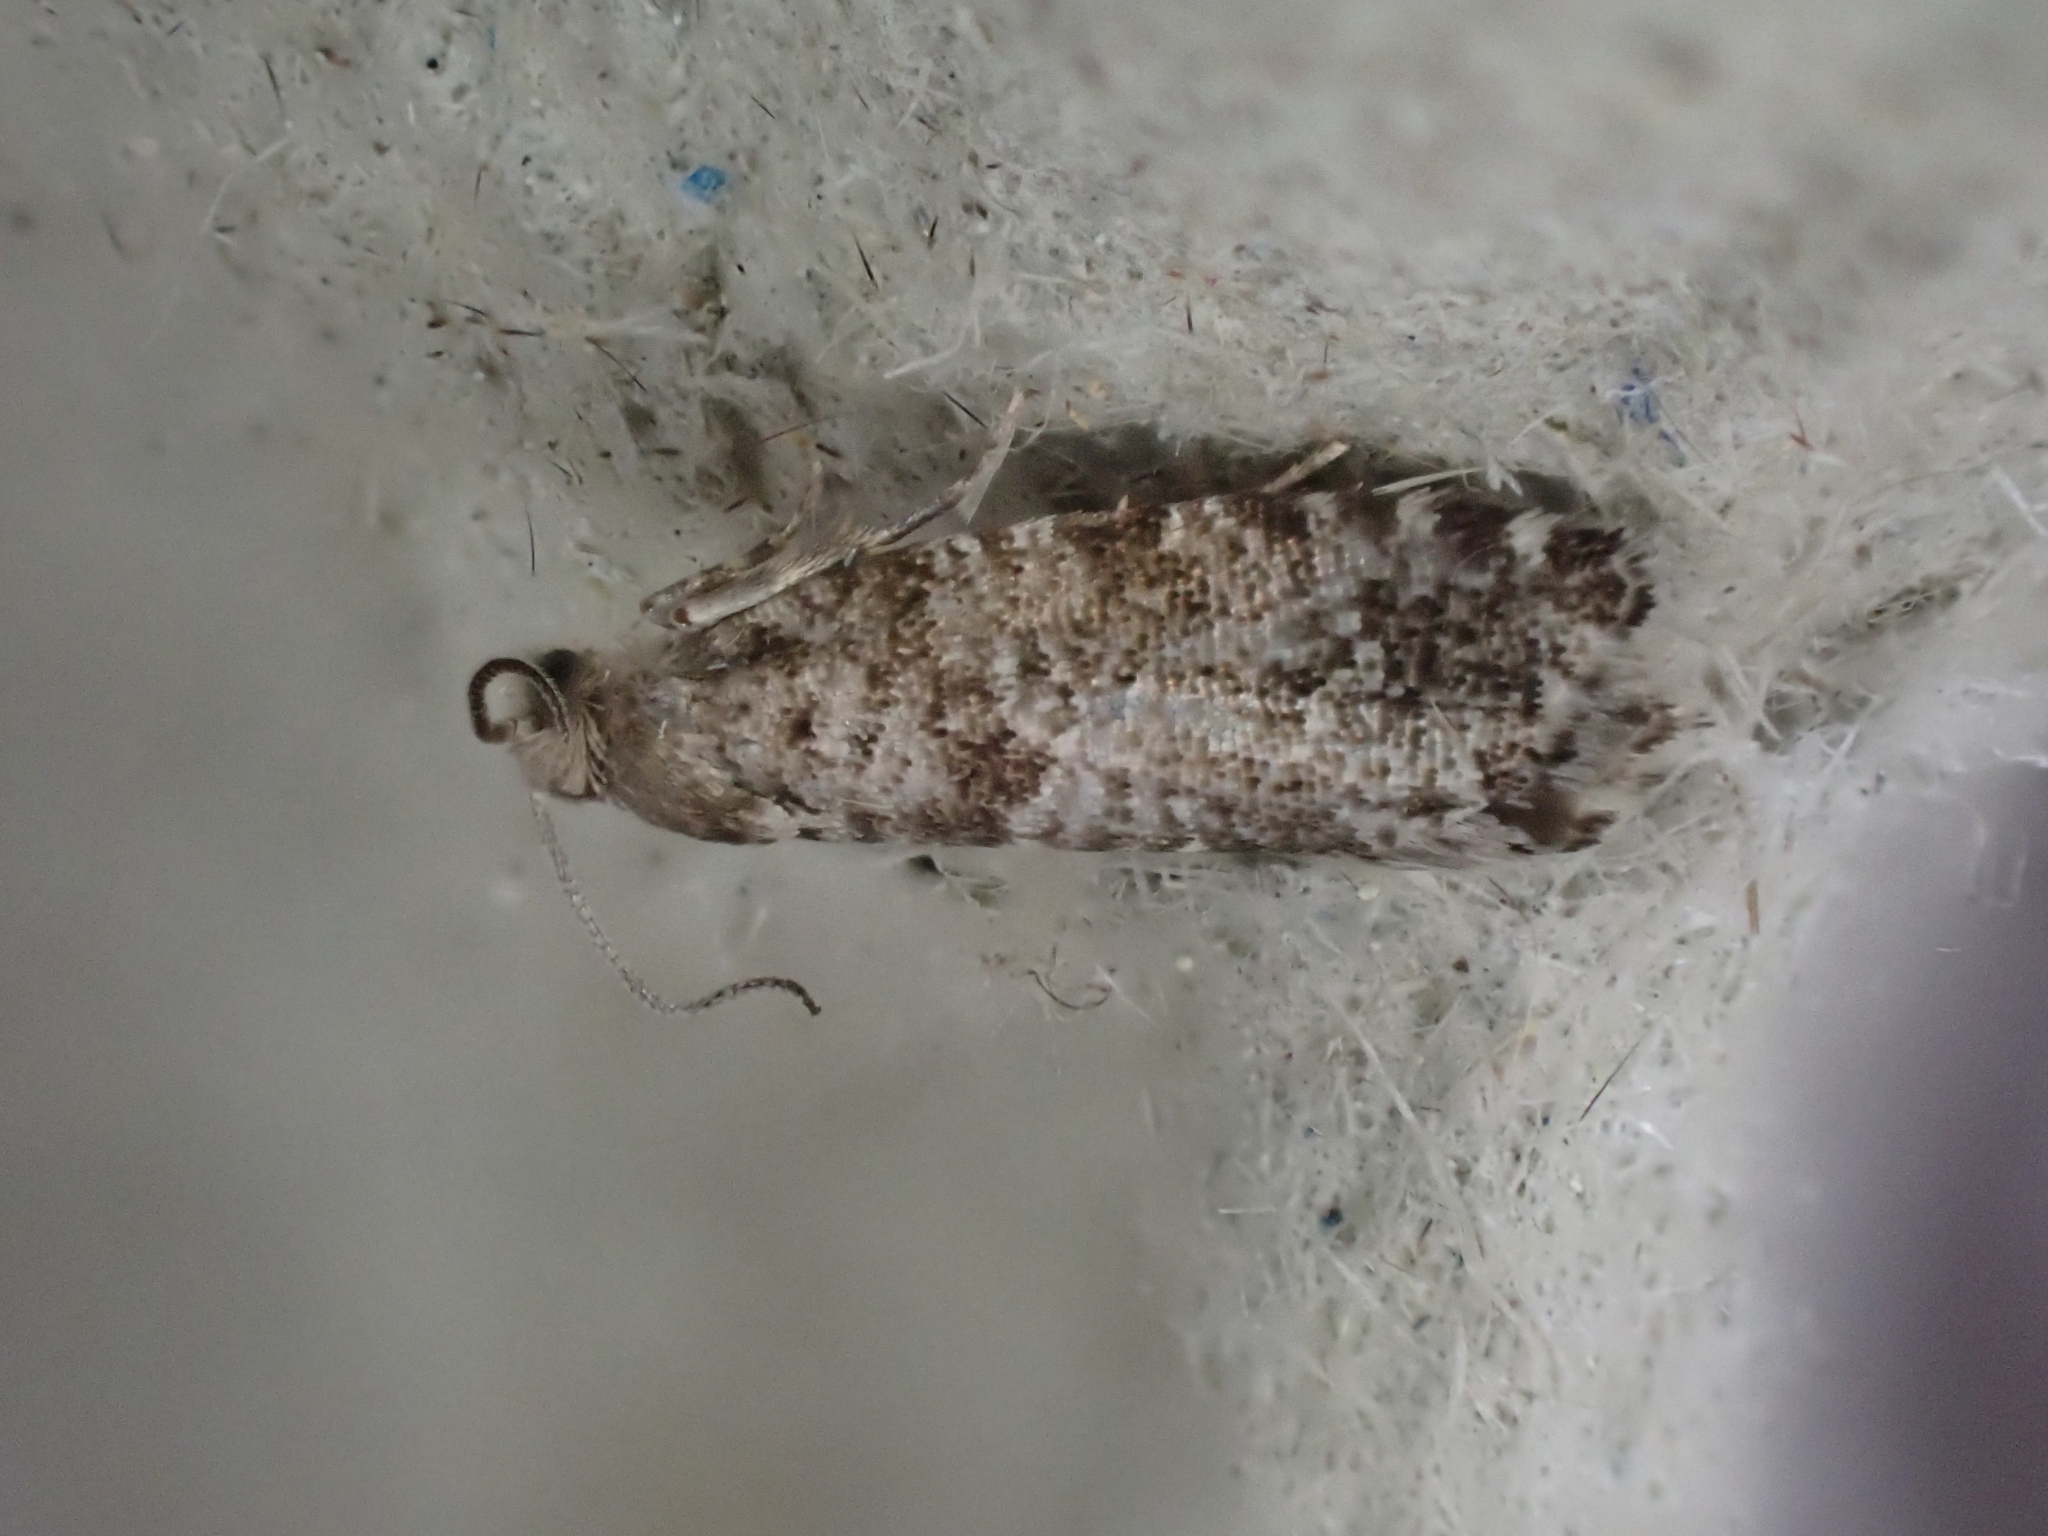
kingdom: Animalia
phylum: Arthropoda
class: Insecta
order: Lepidoptera
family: Tortricidae
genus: Epinotia
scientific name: Epinotia nanana
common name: Leaf roller
